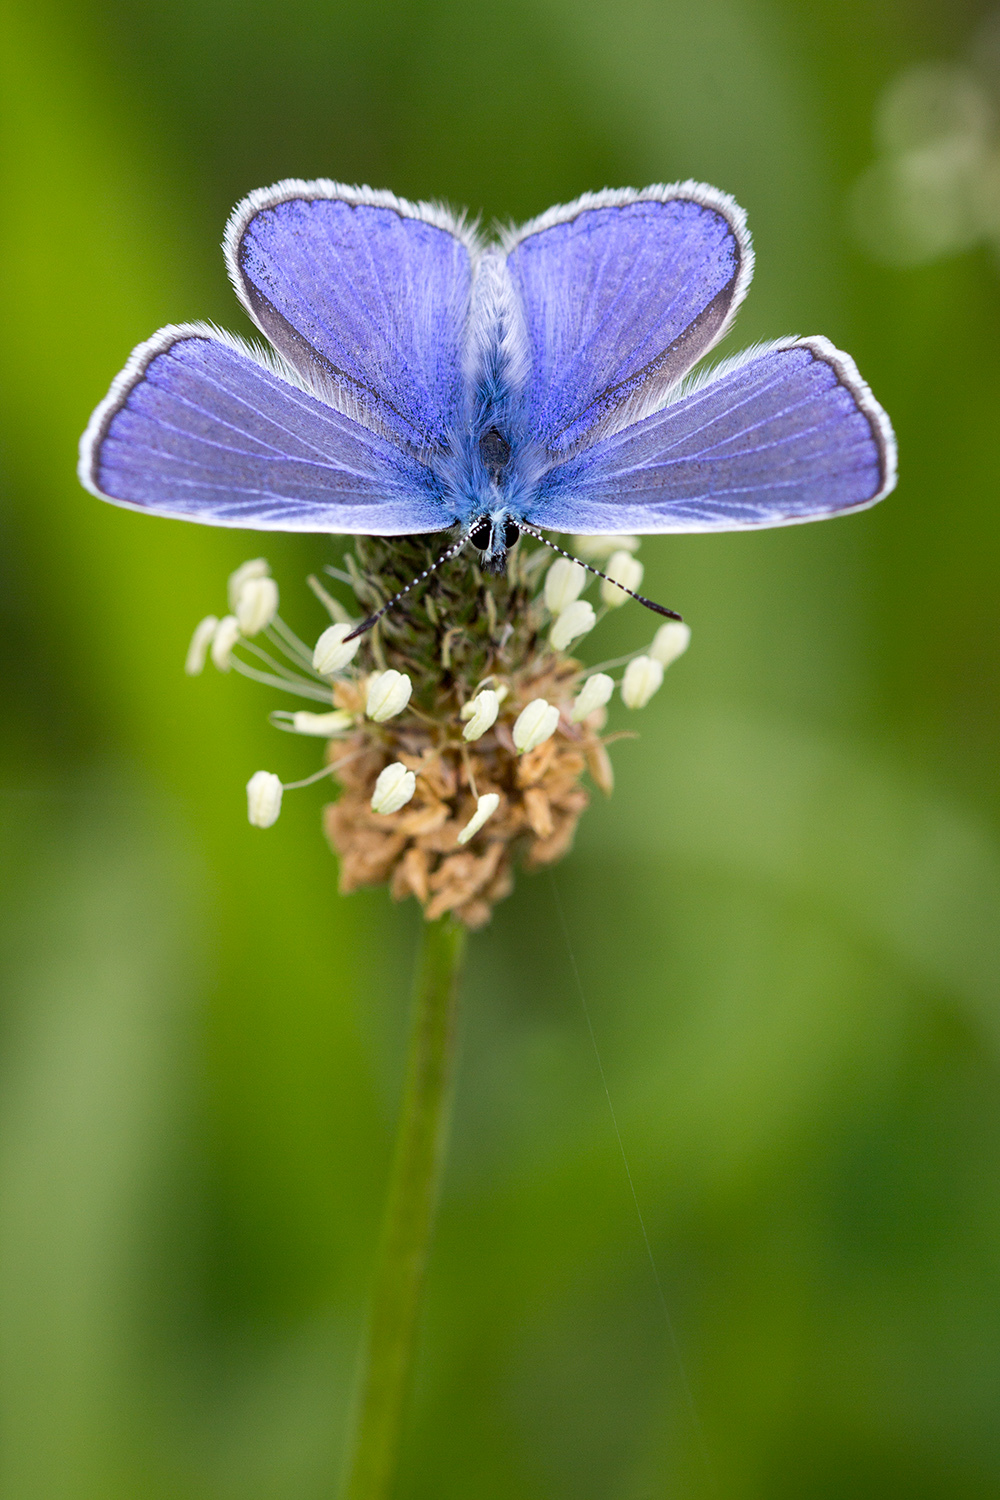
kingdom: Animalia
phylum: Arthropoda
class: Insecta
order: Lepidoptera
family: Lycaenidae
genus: Polyommatus
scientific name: Polyommatus icarus
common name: Common blue
